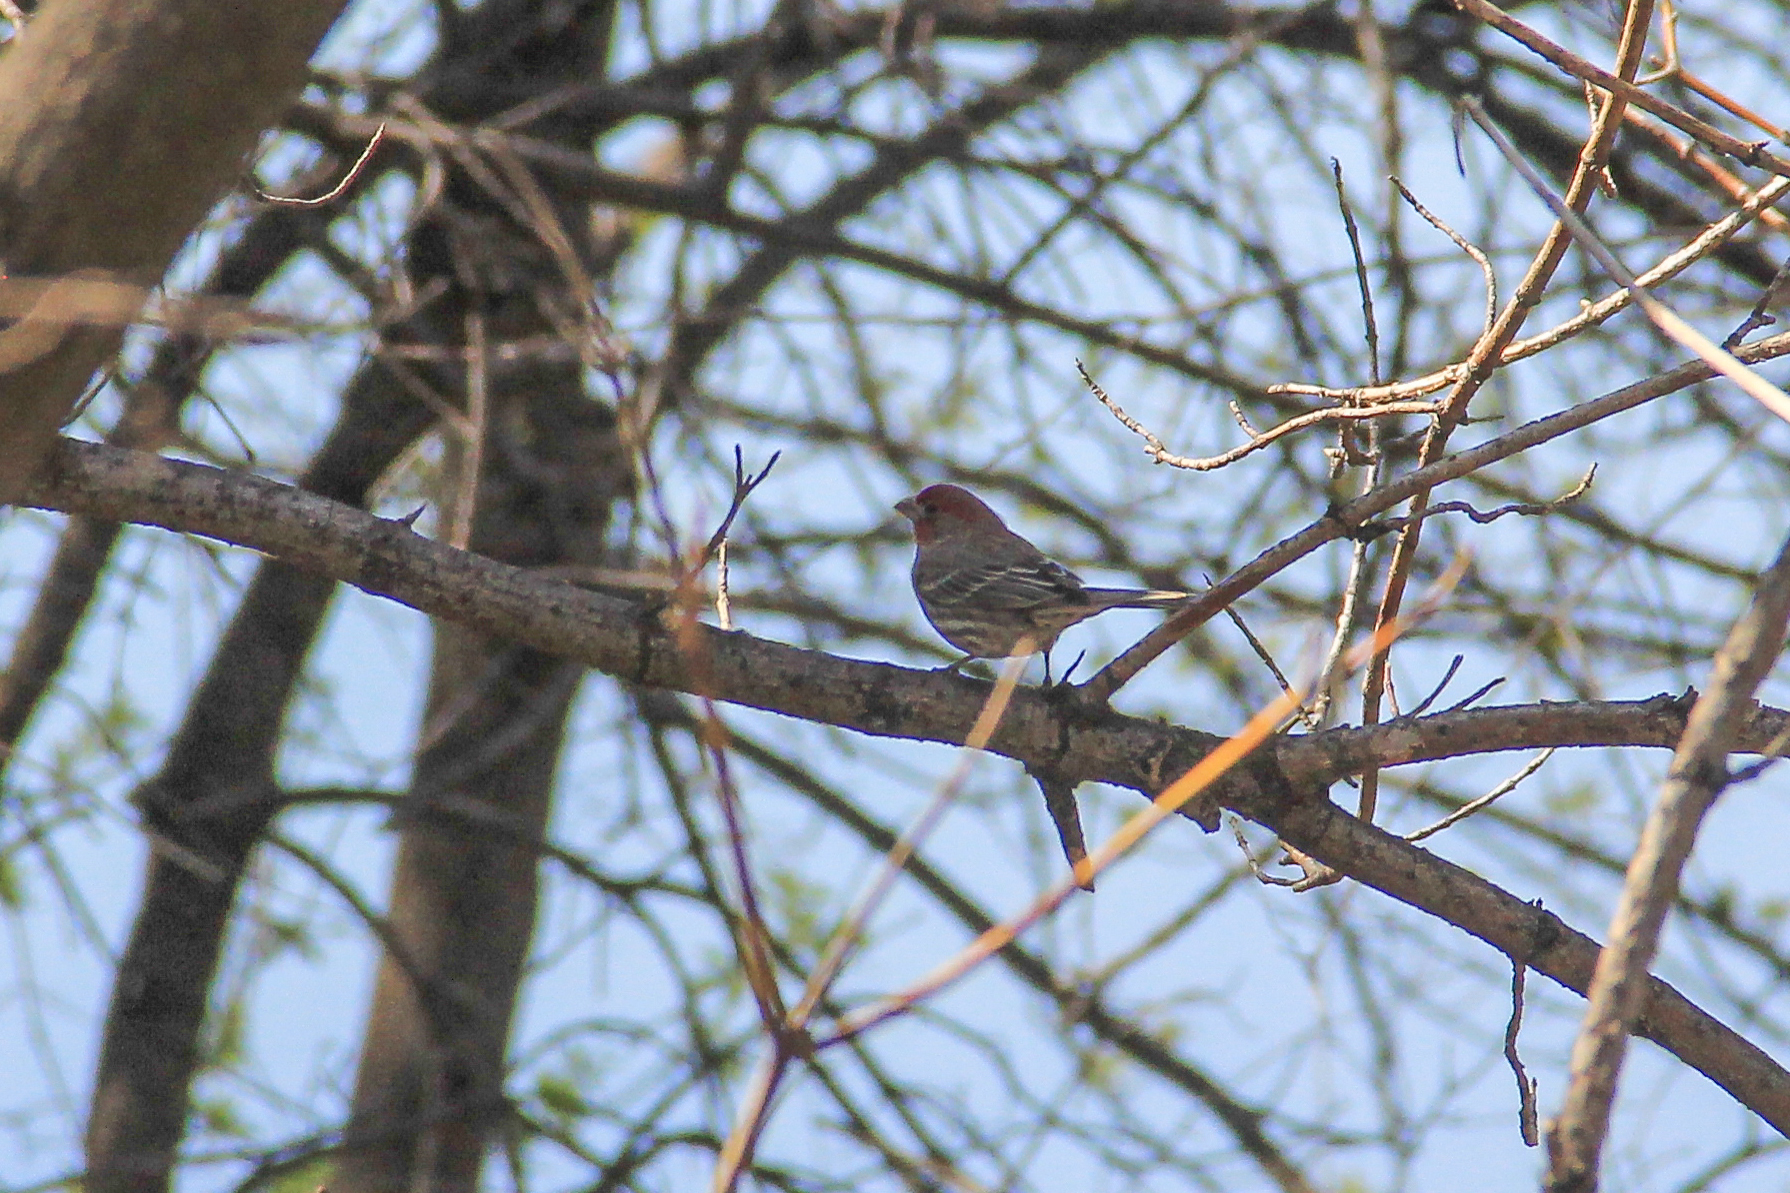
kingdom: Animalia
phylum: Chordata
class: Aves
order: Passeriformes
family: Fringillidae
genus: Haemorhous
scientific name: Haemorhous mexicanus
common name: House finch
